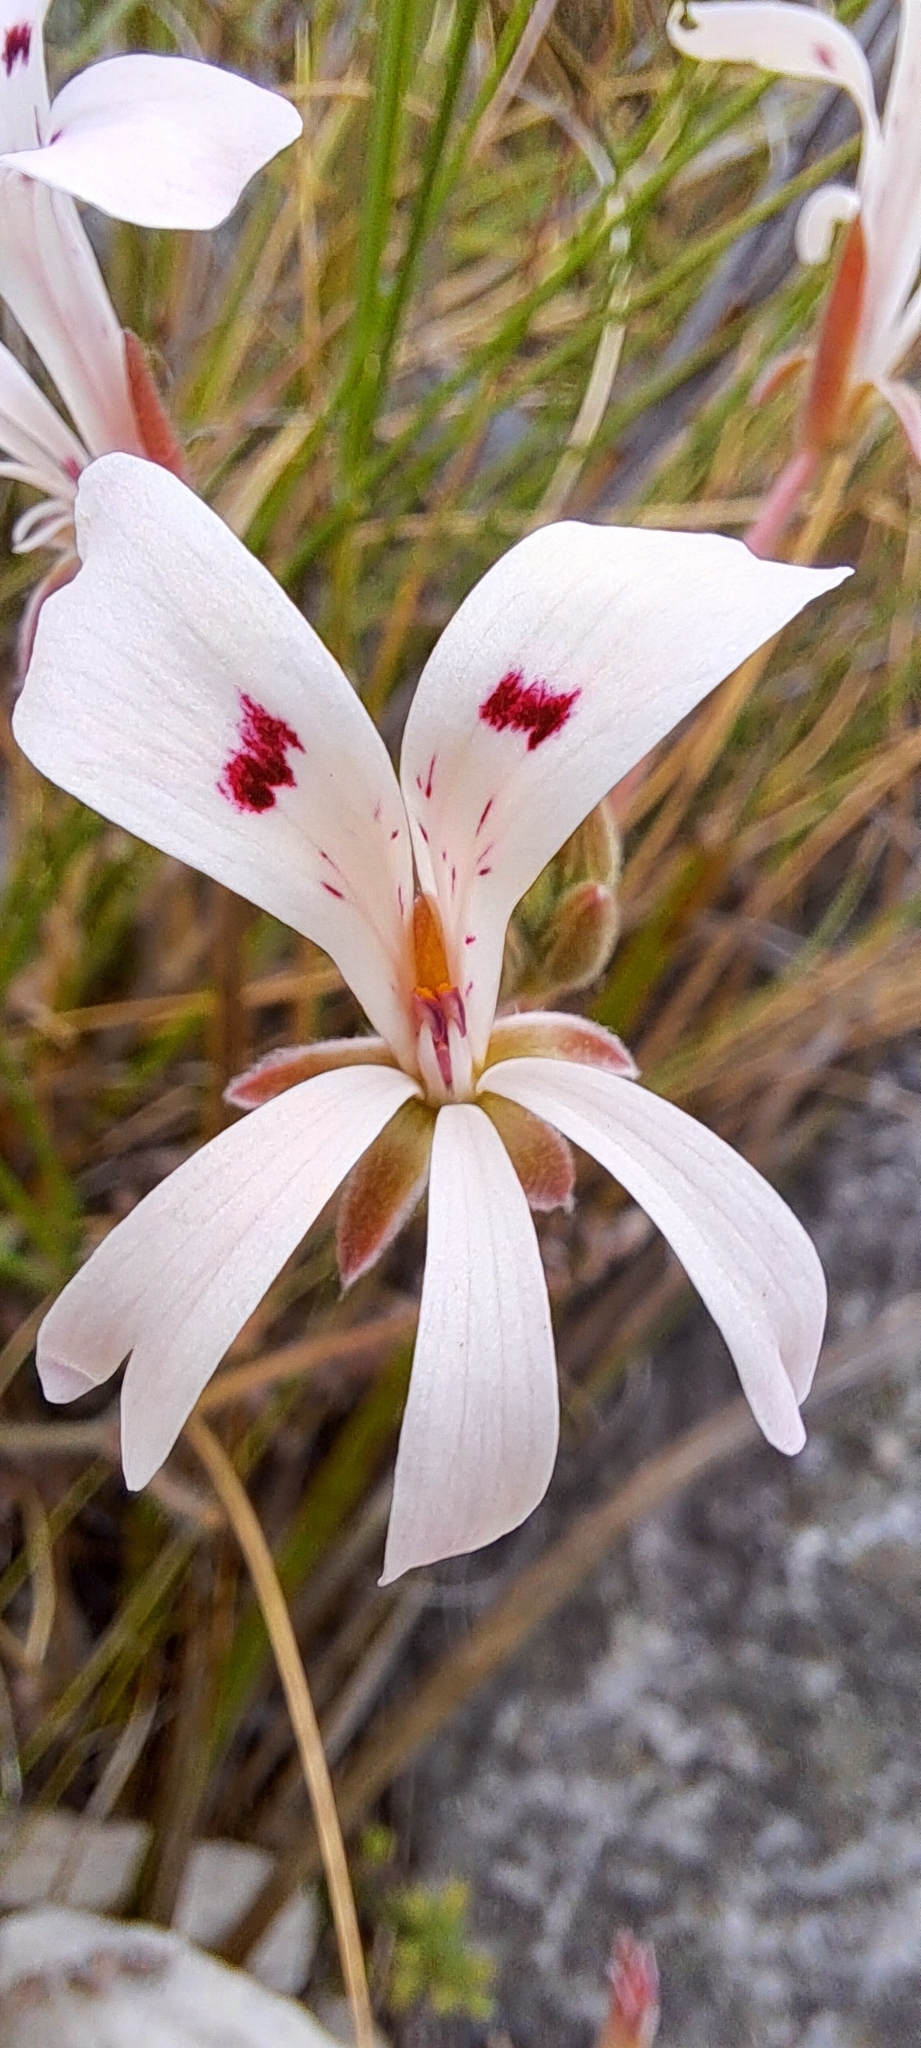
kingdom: Plantae
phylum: Tracheophyta
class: Magnoliopsida
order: Geraniales
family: Geraniaceae
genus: Pelargonium
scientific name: Pelargonium pinnatum
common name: Pinnated pelargonium
